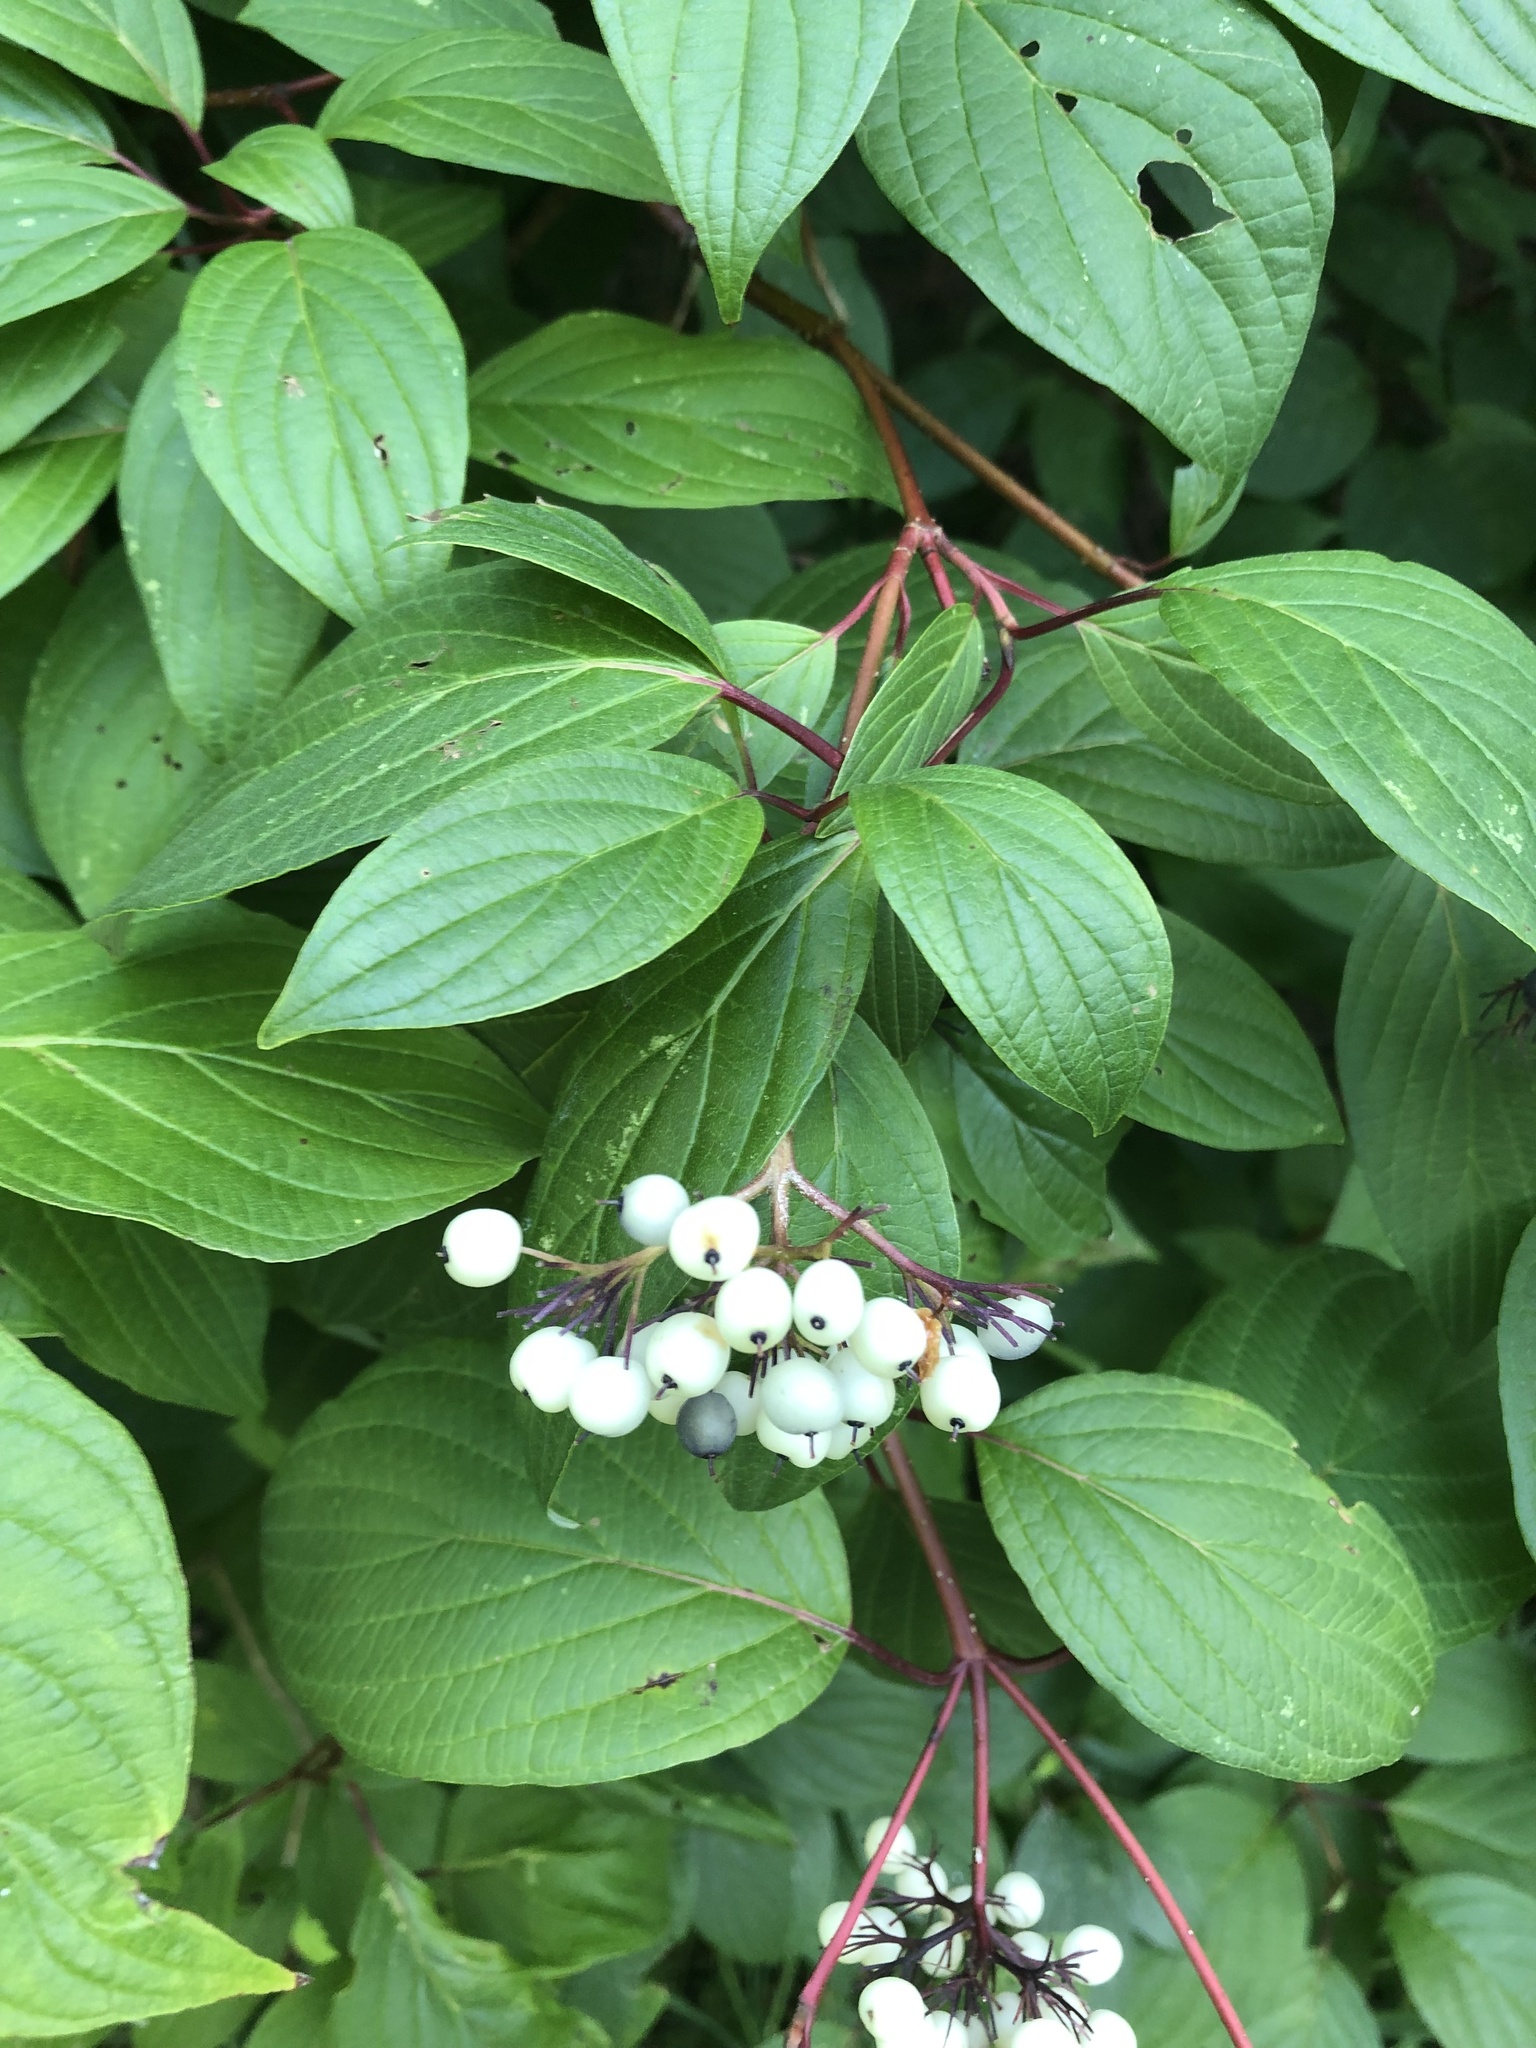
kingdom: Plantae
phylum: Tracheophyta
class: Magnoliopsida
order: Cornales
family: Cornaceae
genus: Cornus
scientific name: Cornus sericea
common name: Red-osier dogwood
